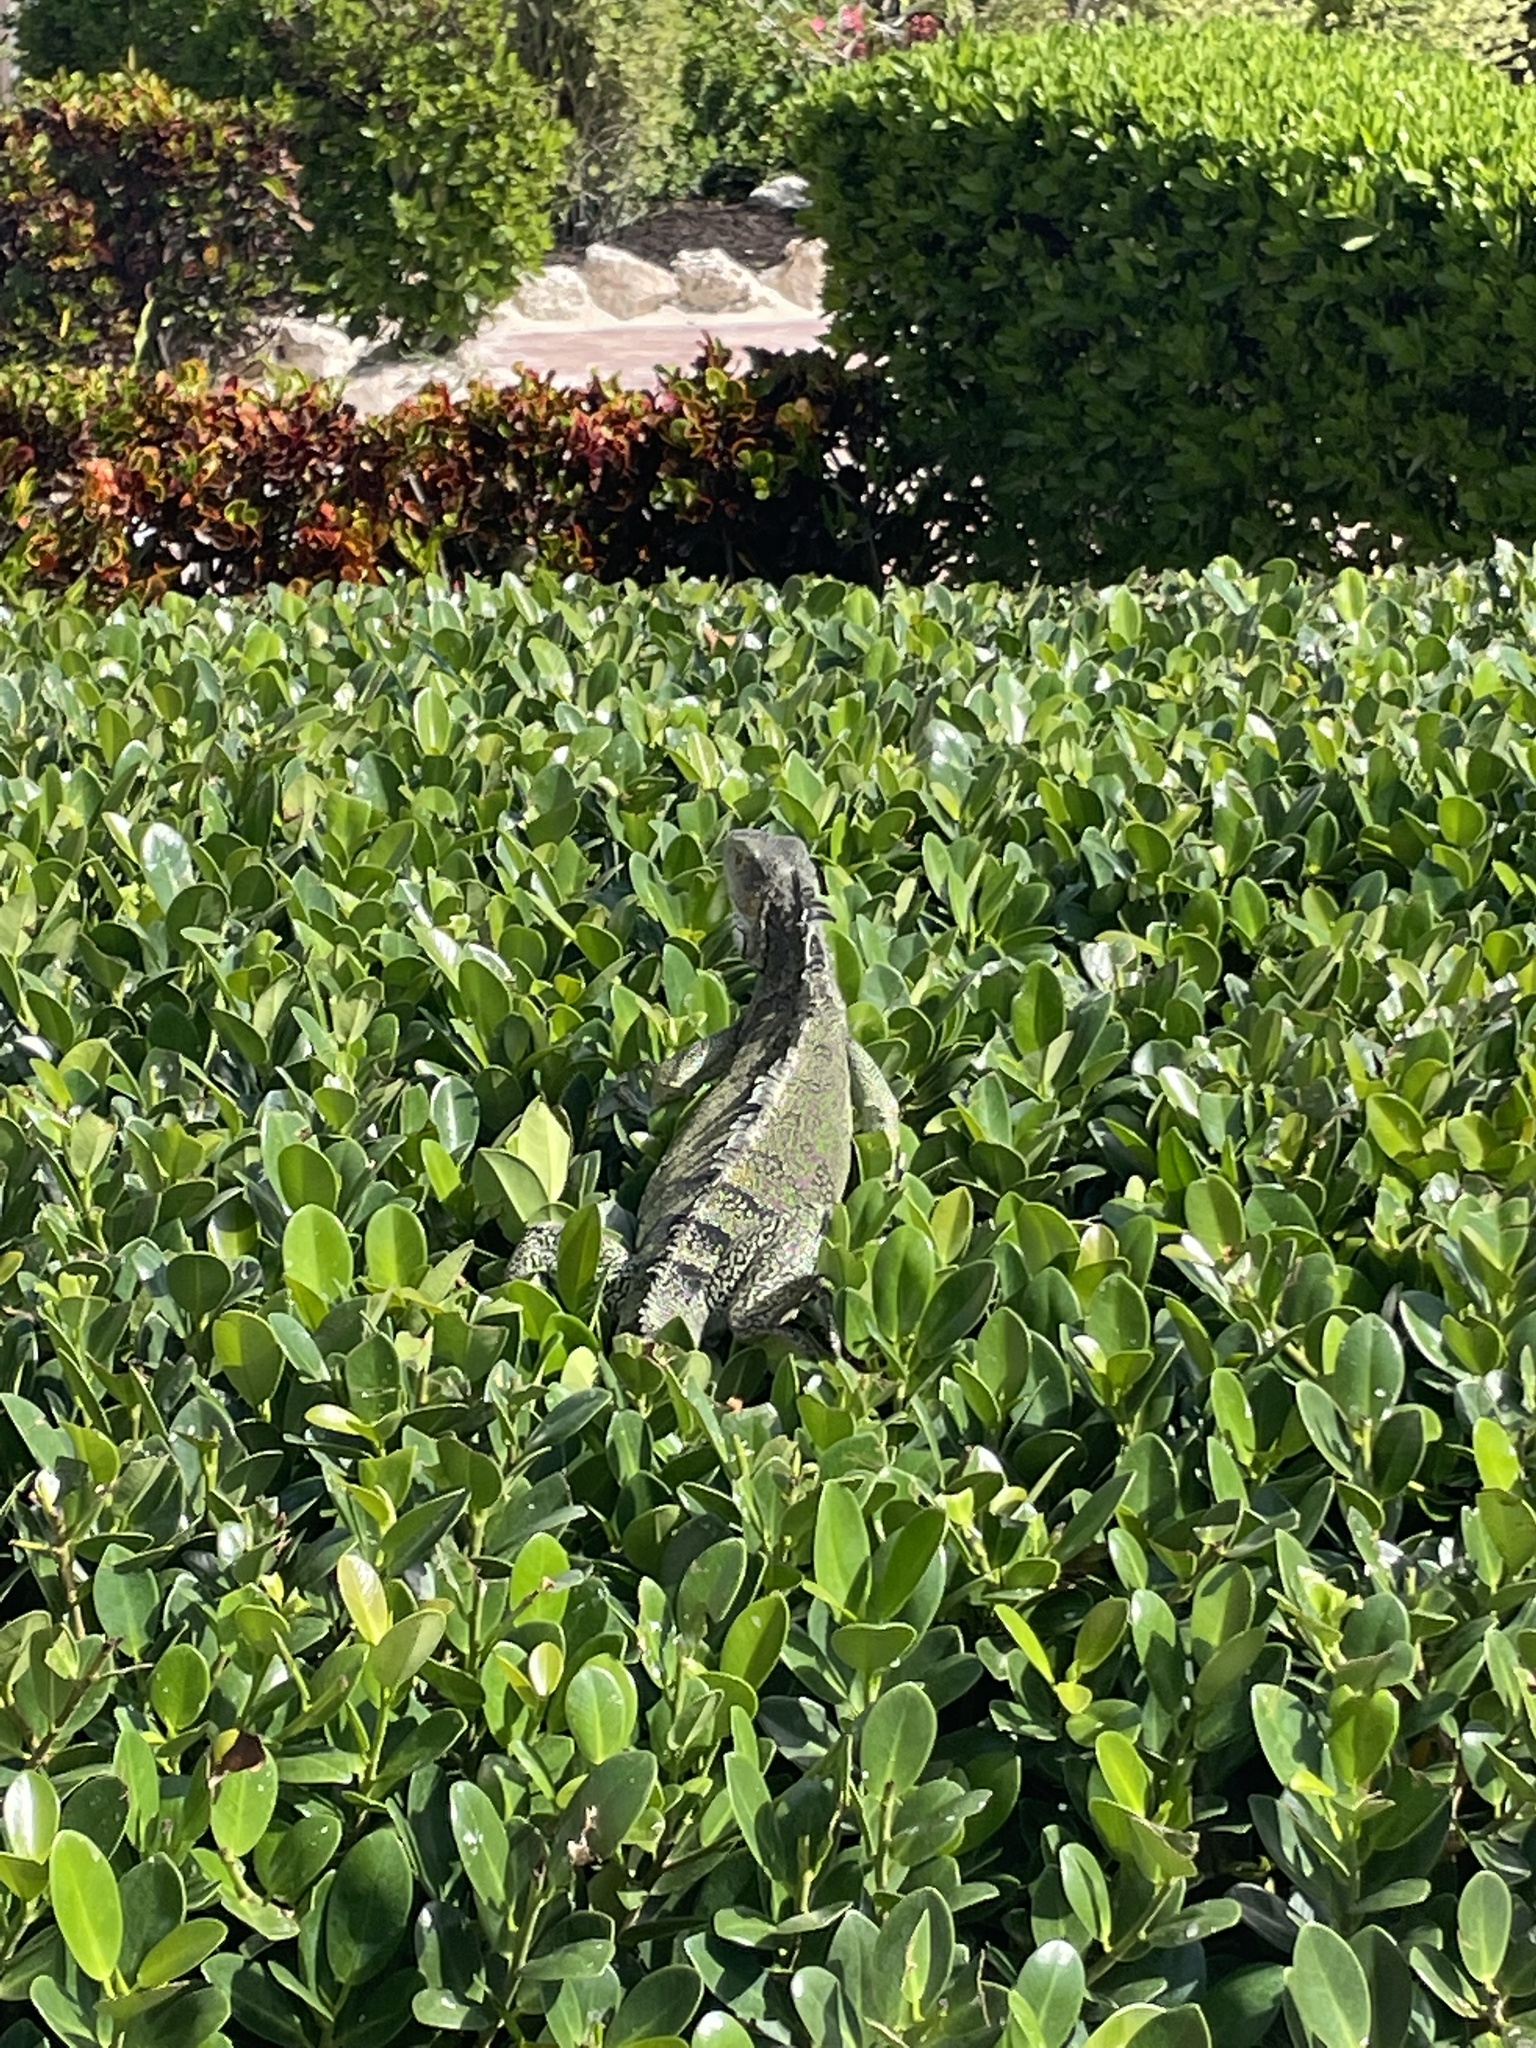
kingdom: Animalia
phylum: Chordata
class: Squamata
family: Iguanidae
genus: Iguana
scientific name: Iguana iguana
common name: Green iguana
